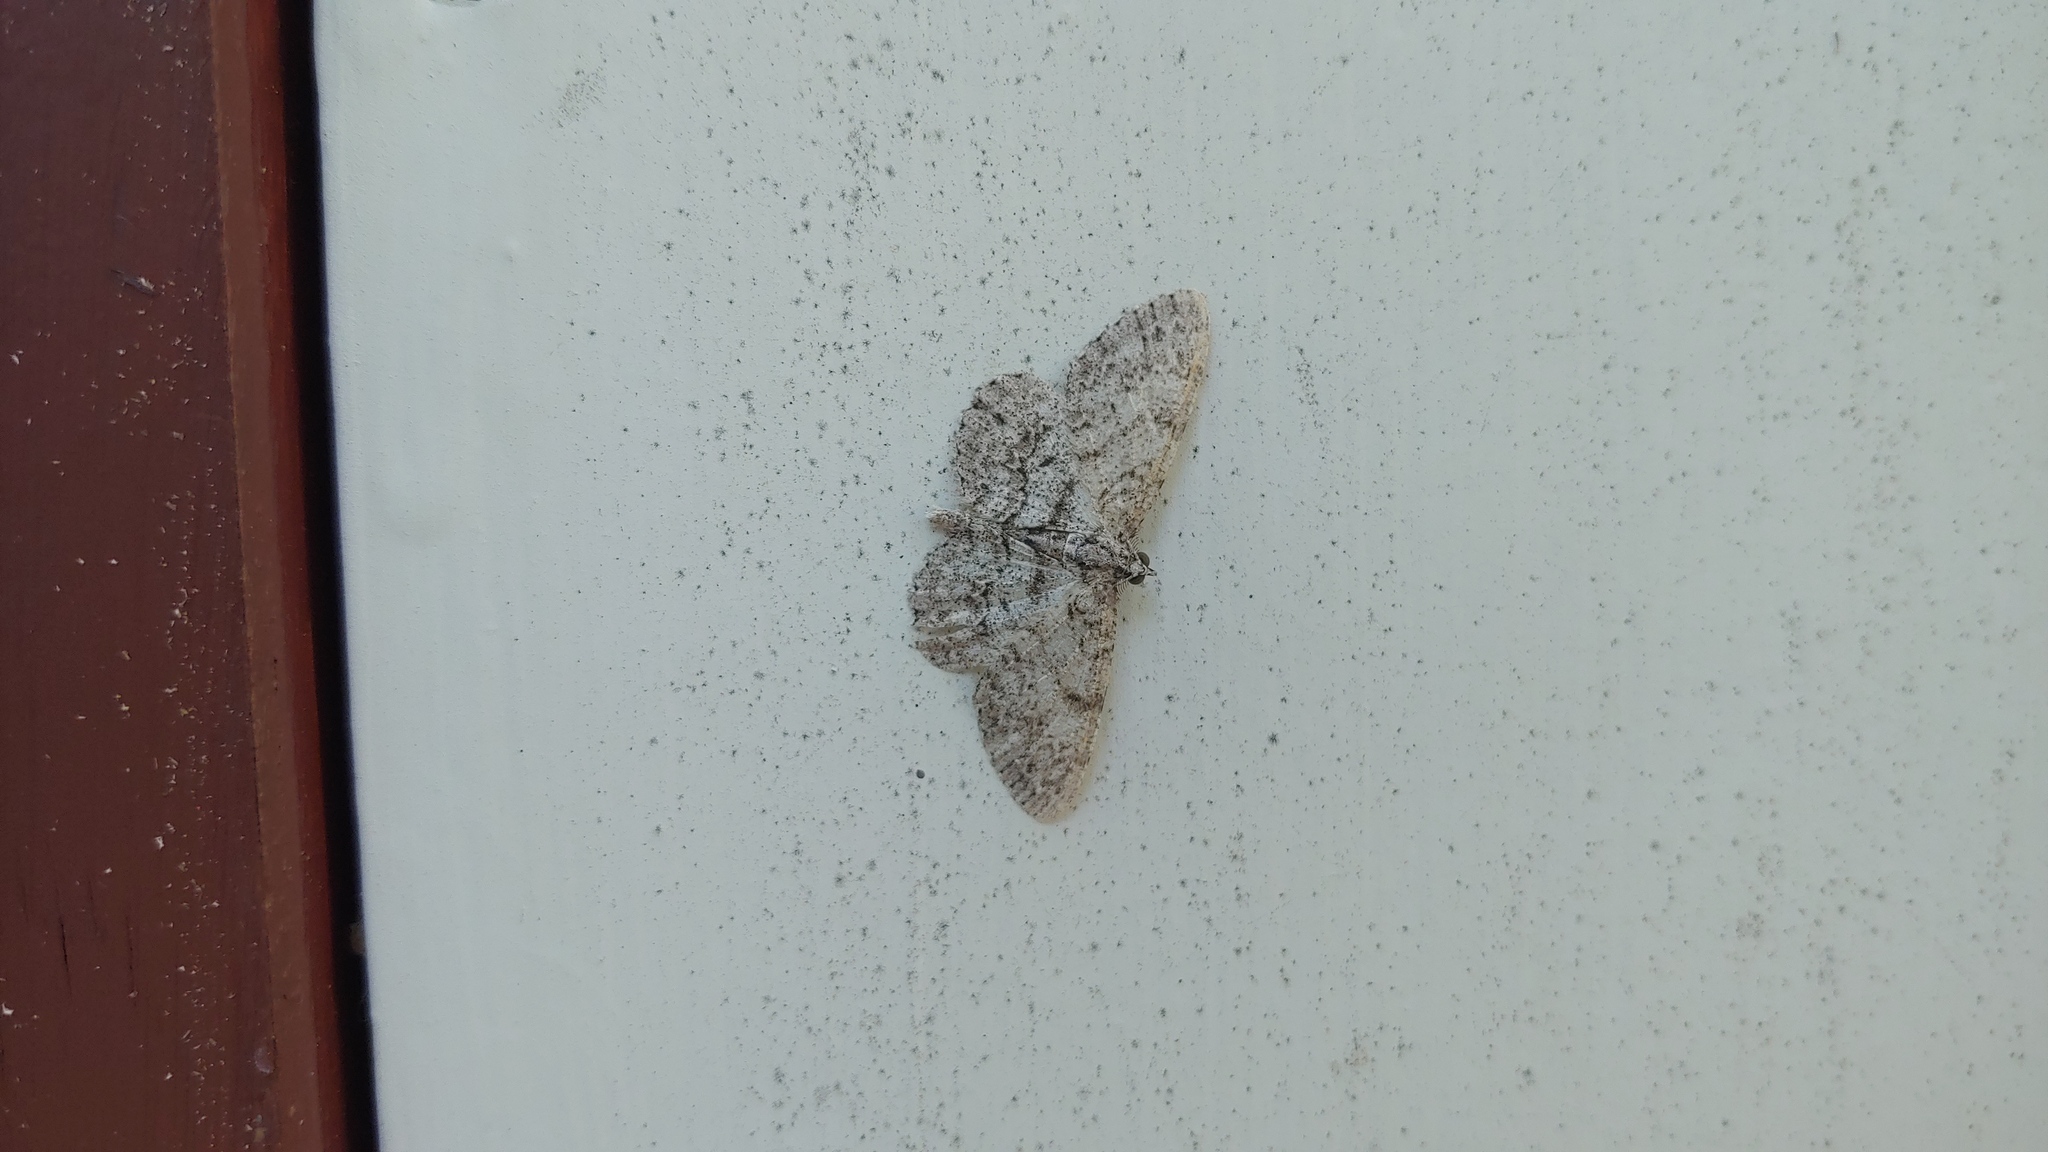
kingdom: Animalia
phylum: Arthropoda
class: Insecta
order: Lepidoptera
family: Geometridae
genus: Protoboarmia
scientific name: Protoboarmia porcelaria
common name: Porcelain gray
